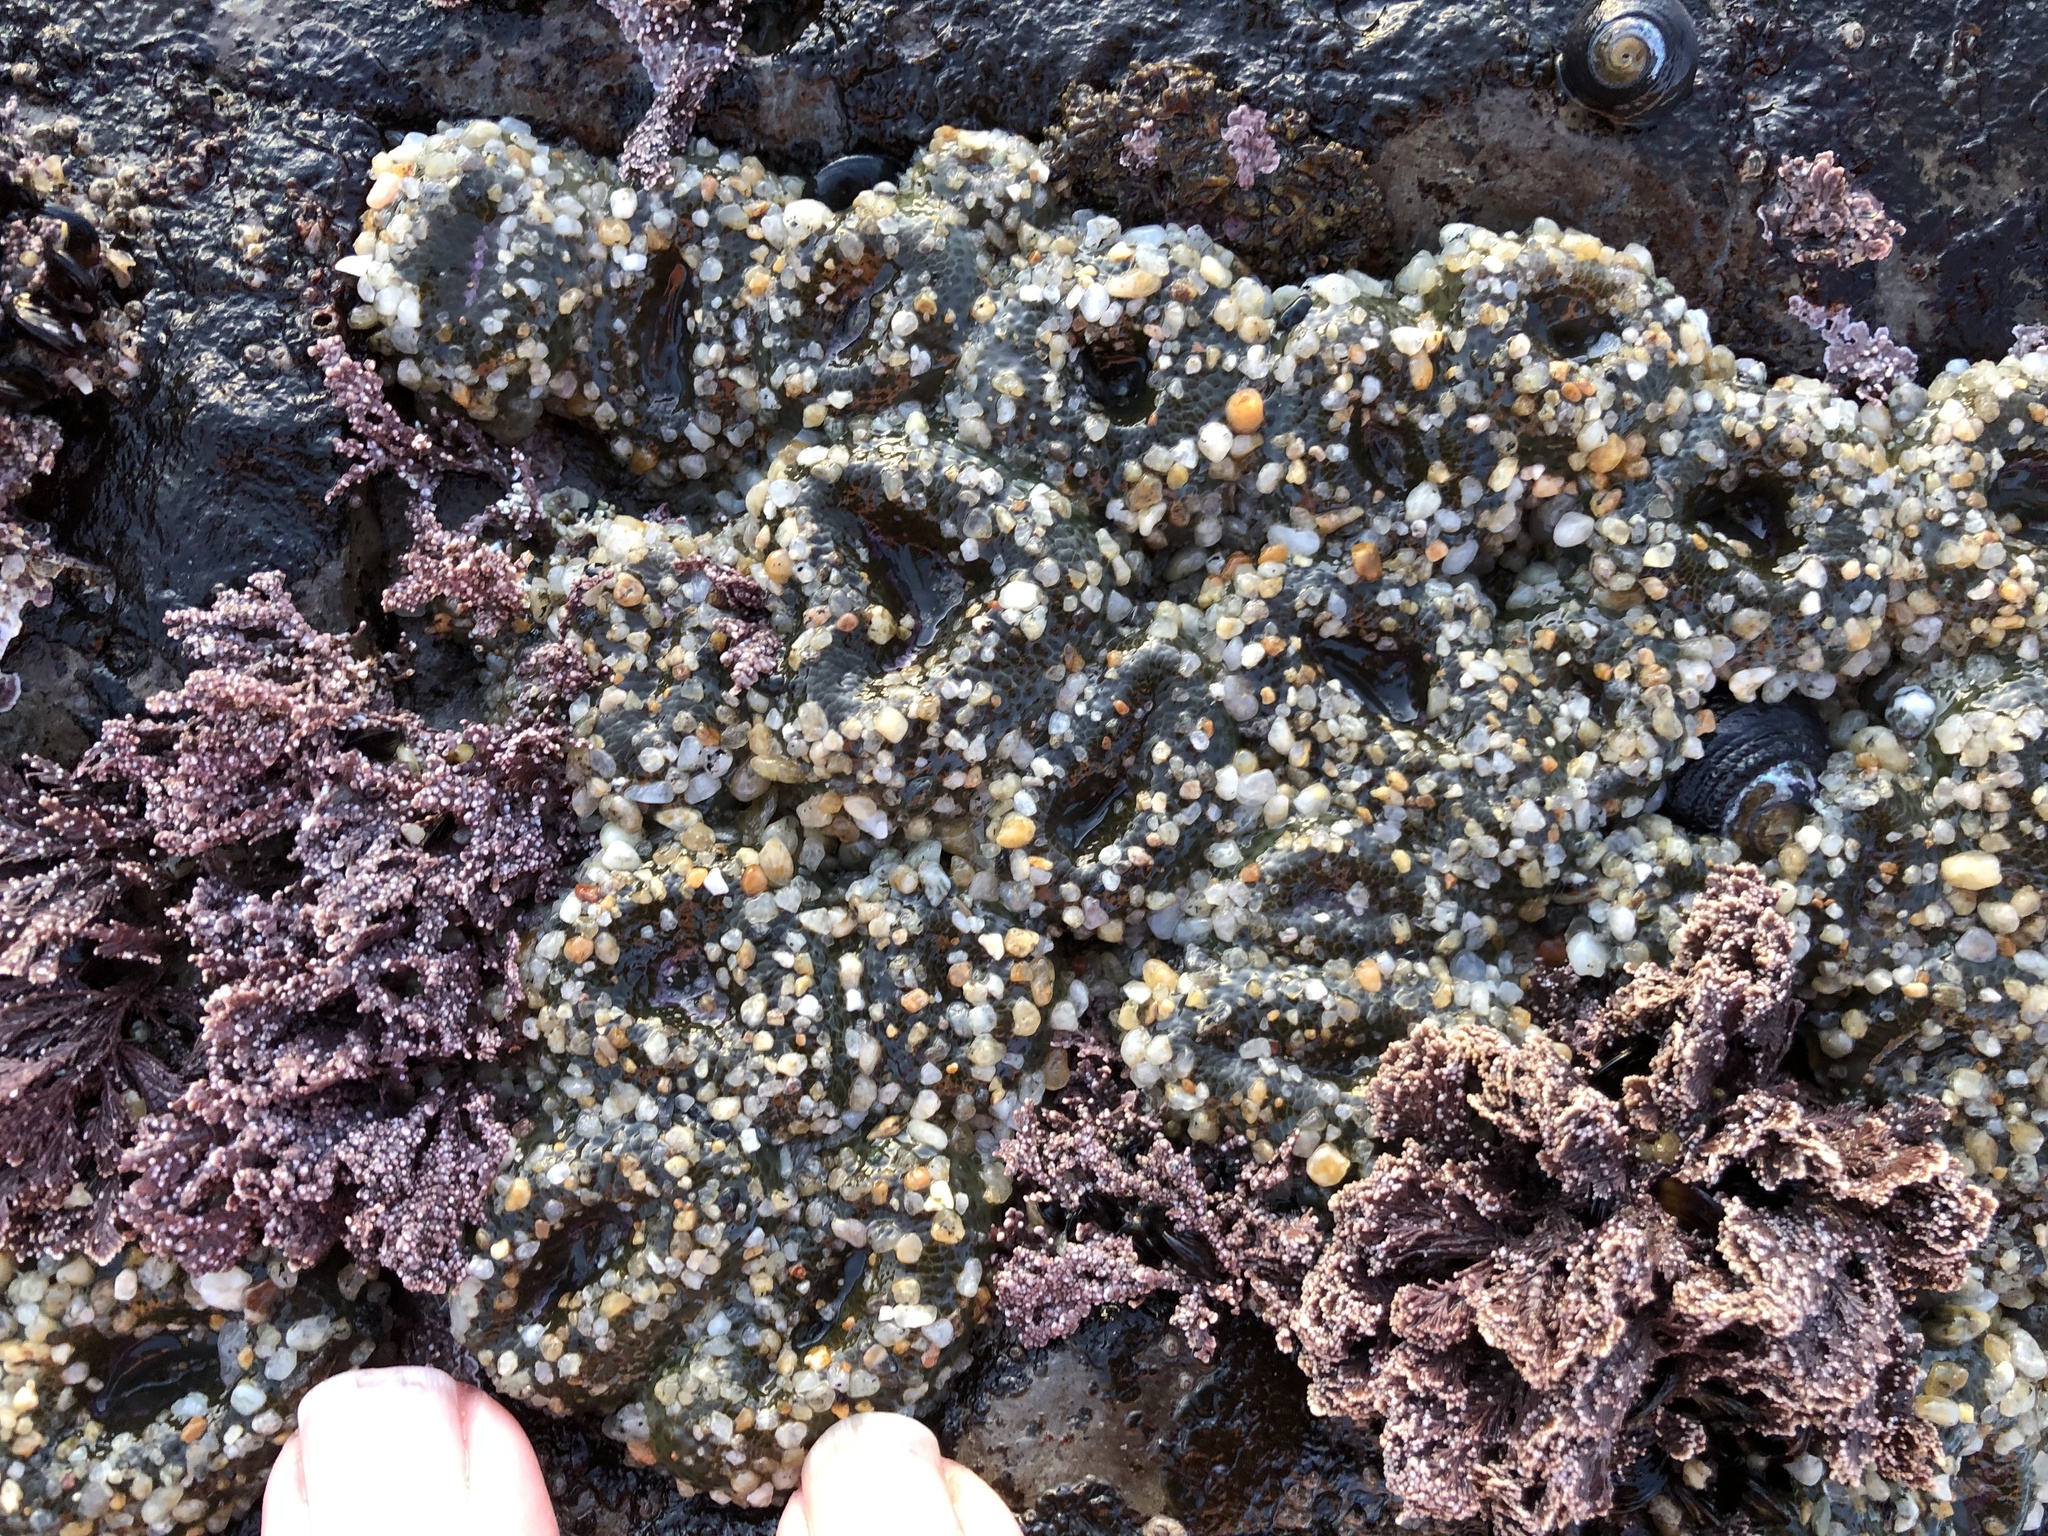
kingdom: Animalia
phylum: Cnidaria
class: Anthozoa
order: Actiniaria
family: Actiniidae
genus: Anthopleura
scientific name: Anthopleura elegantissima
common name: Clonal anemone
